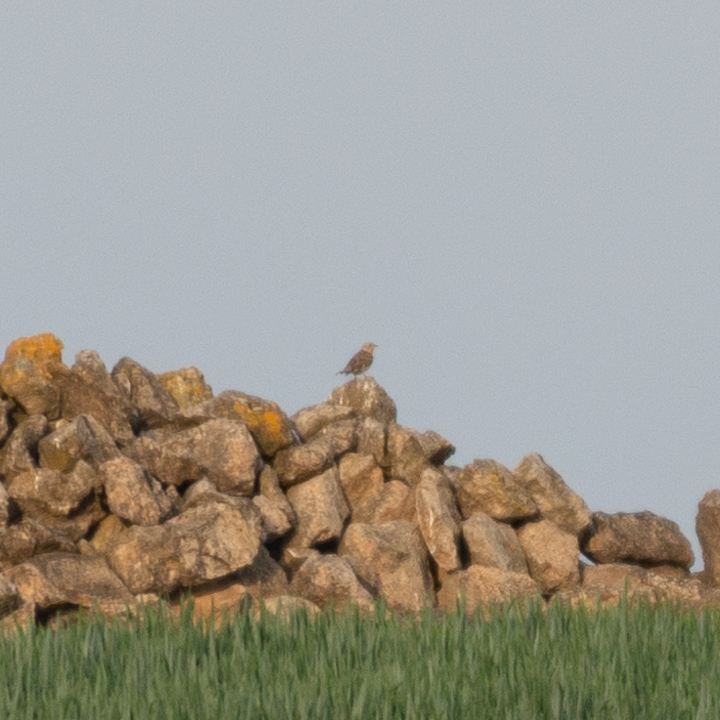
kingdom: Animalia
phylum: Chordata
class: Aves
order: Passeriformes
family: Passeridae
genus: Petronia
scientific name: Petronia petronia
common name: Rock sparrow
